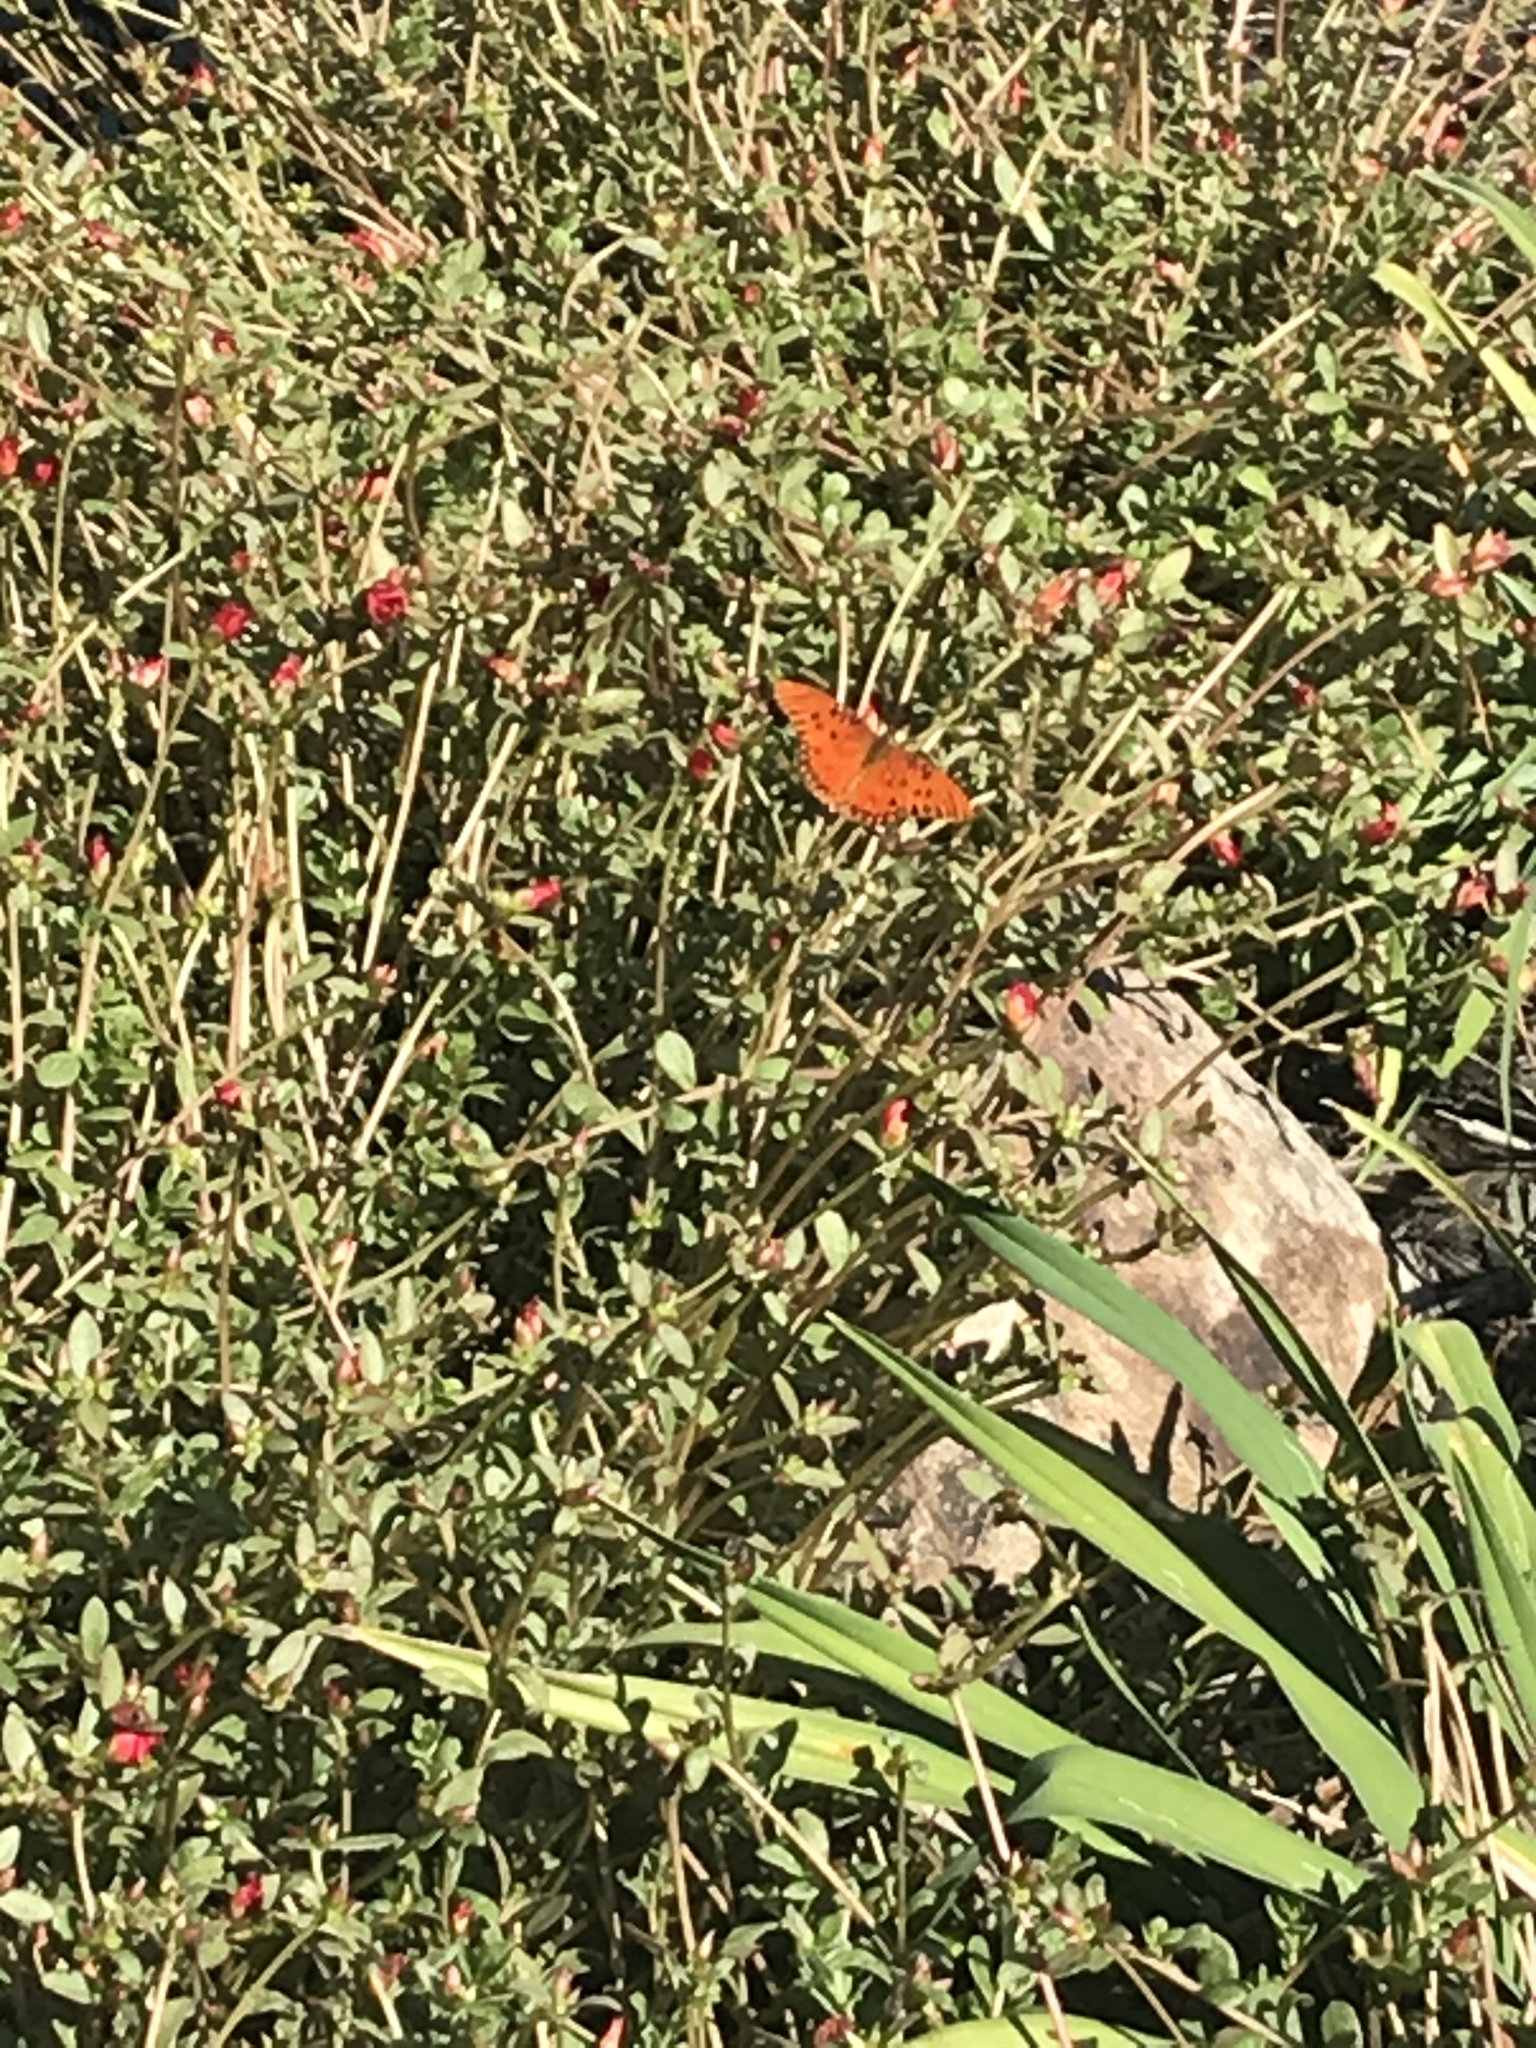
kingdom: Animalia
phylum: Arthropoda
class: Insecta
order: Lepidoptera
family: Nymphalidae
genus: Dione
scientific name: Dione vanillae
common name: Gulf fritillary
